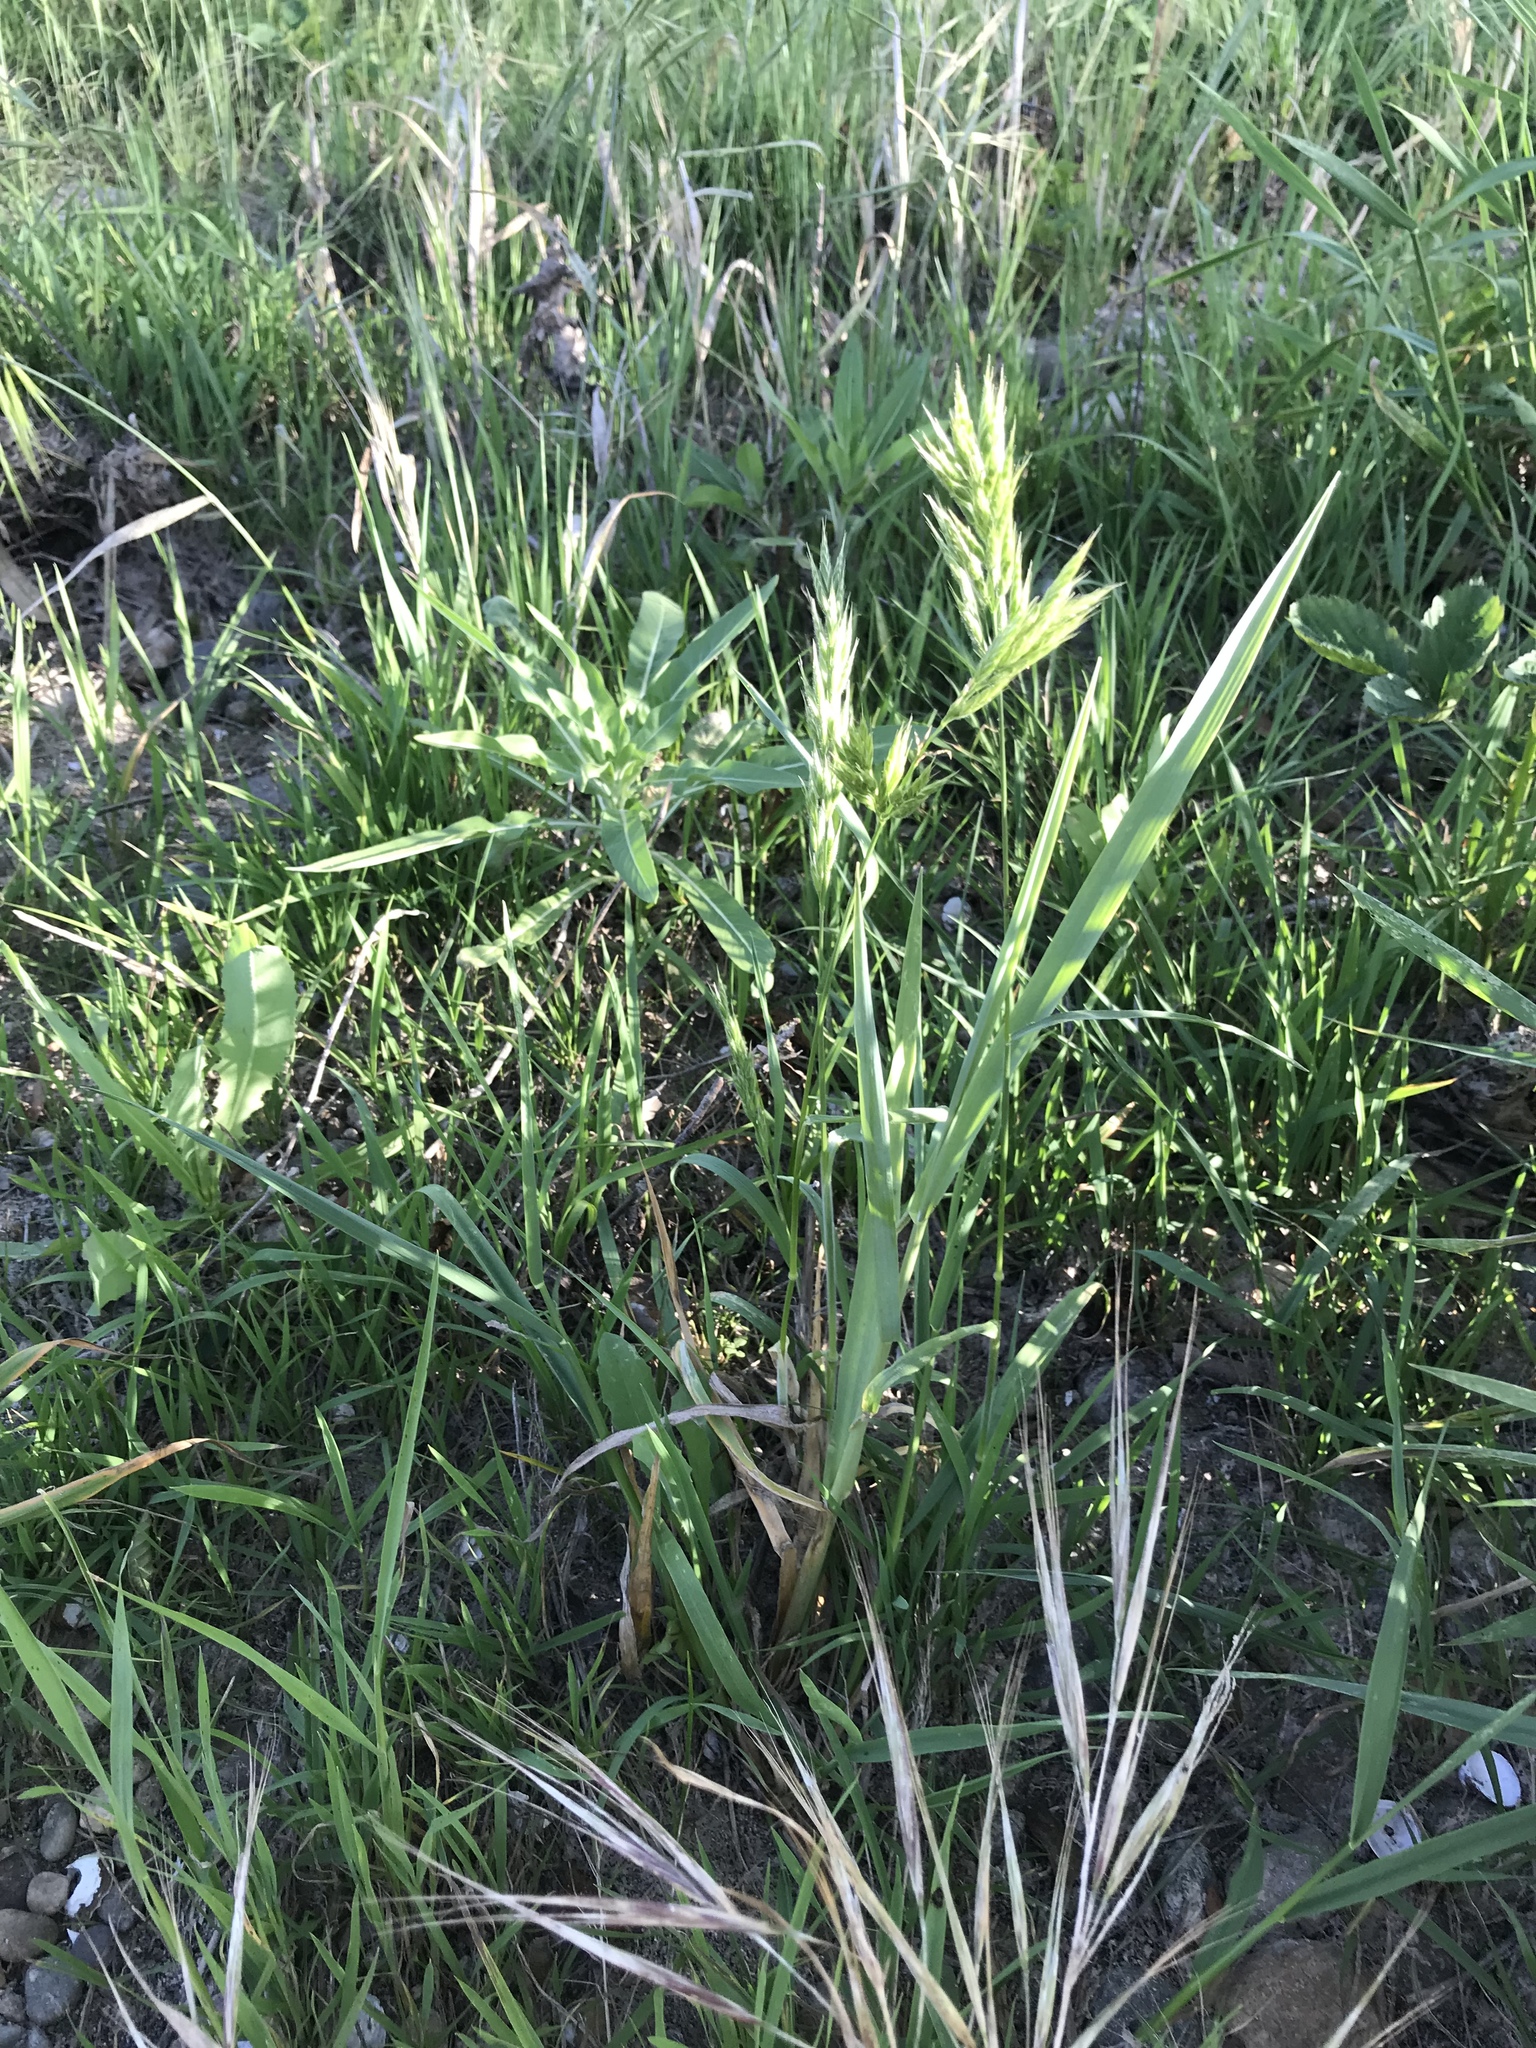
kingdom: Plantae
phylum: Tracheophyta
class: Liliopsida
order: Poales
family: Poaceae
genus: Bromus
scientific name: Bromus hordeaceus
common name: Soft brome
